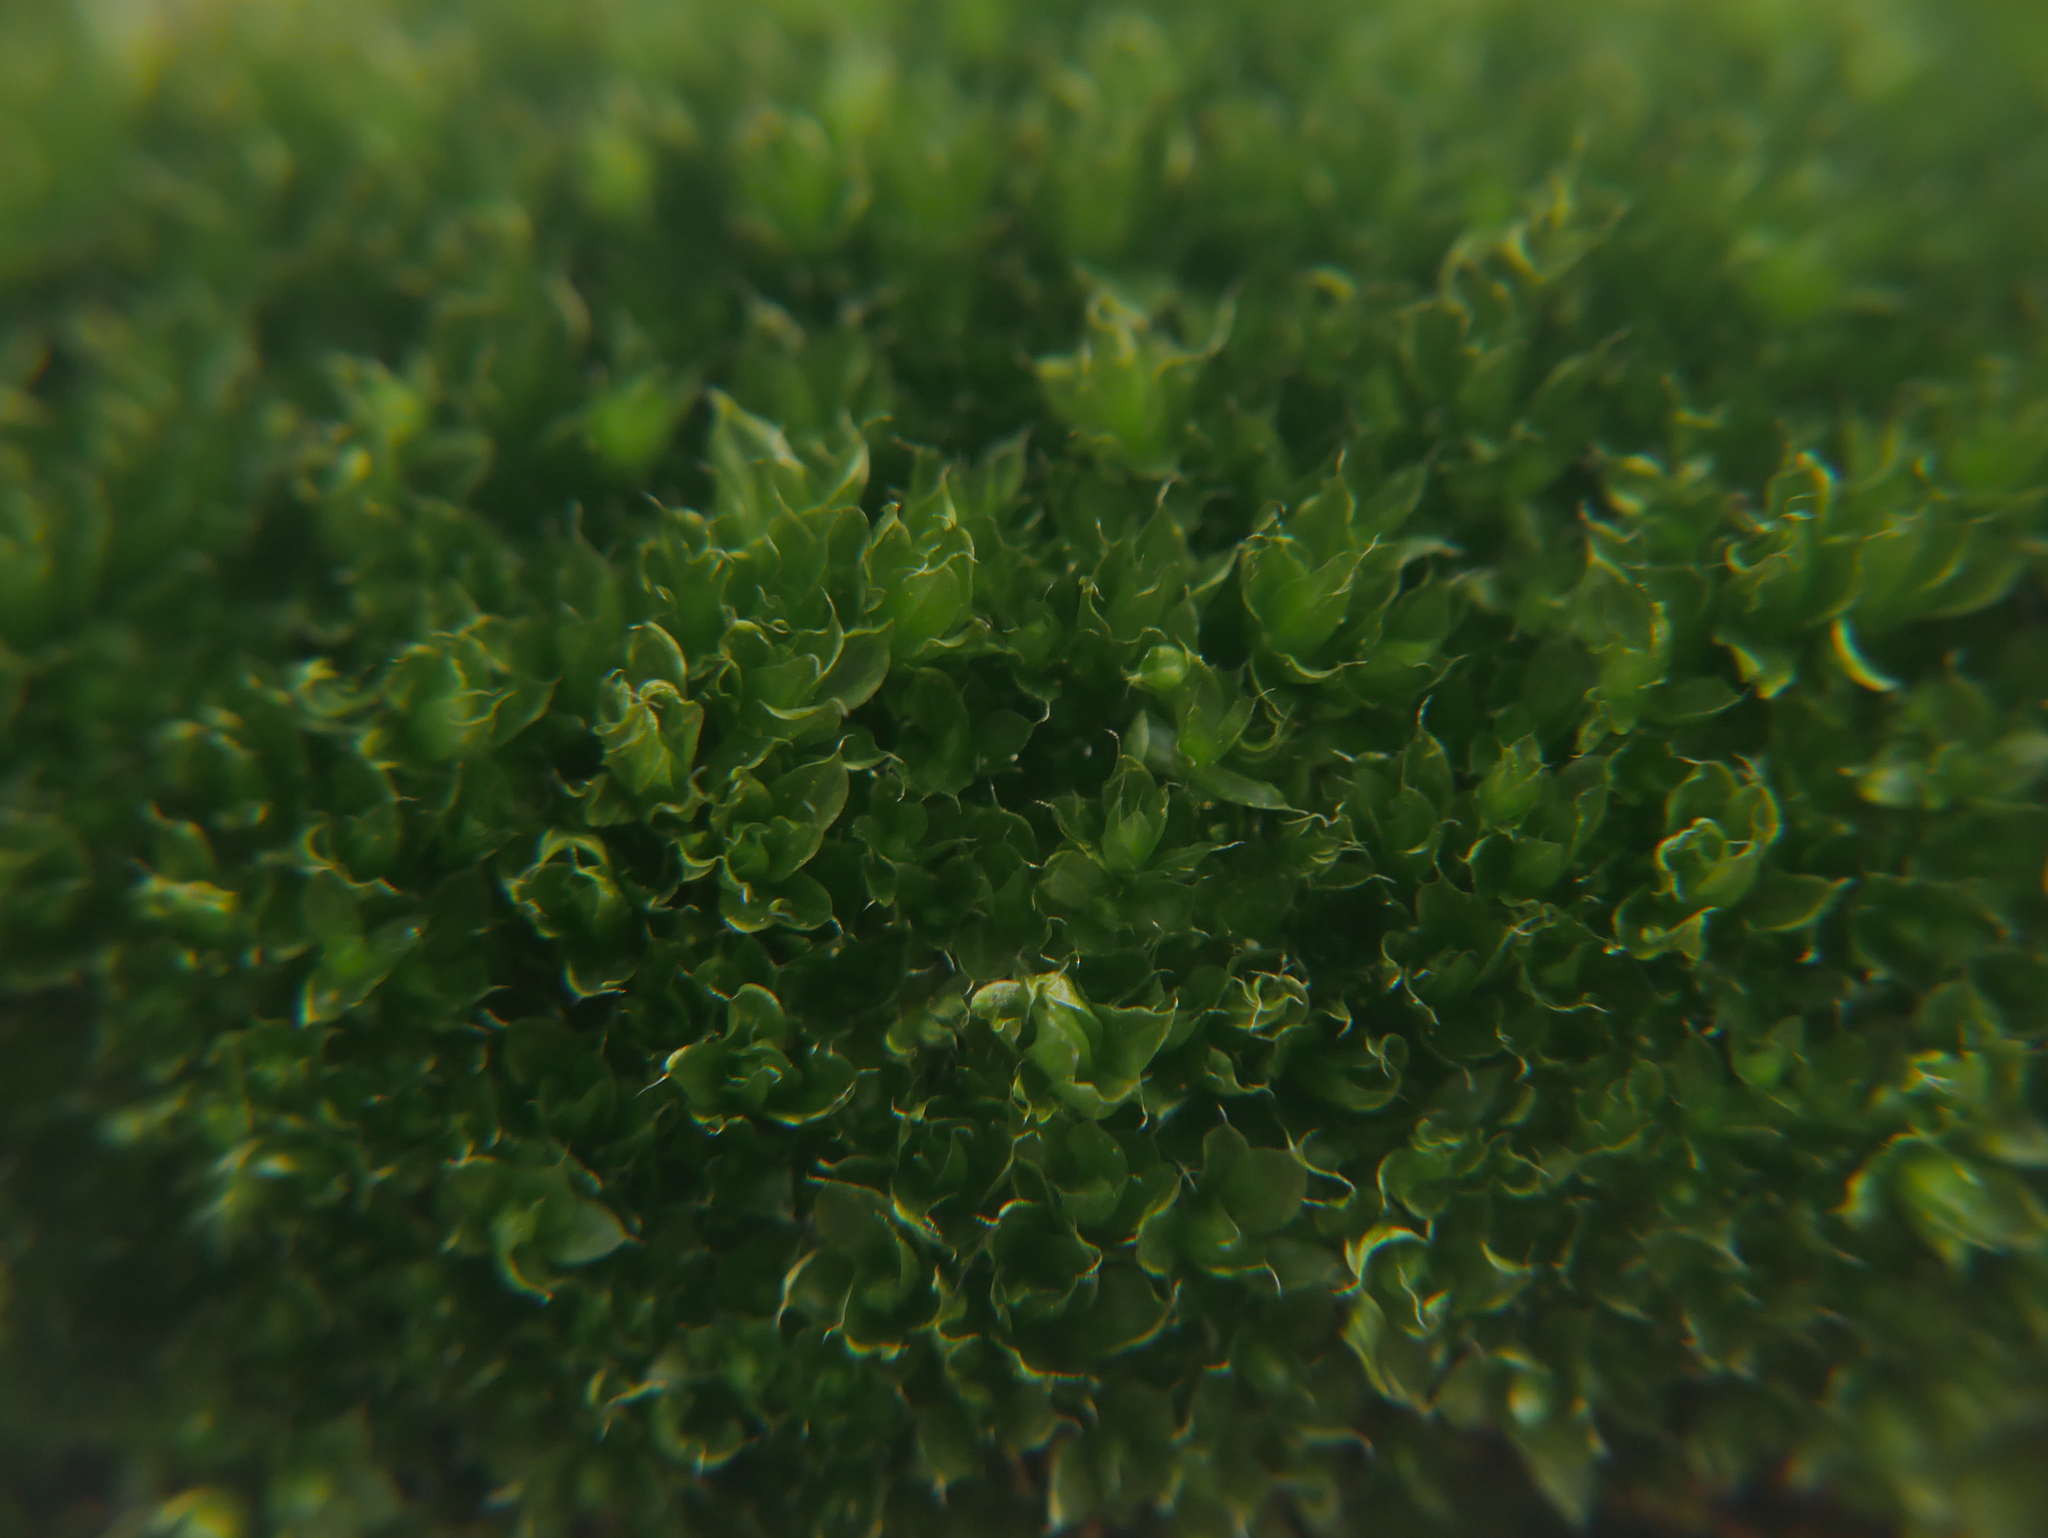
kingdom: Plantae
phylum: Bryophyta
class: Bryopsida
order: Bryales
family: Bryaceae
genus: Rosulabryum
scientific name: Rosulabryum capillare
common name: Capillary thread-moss
